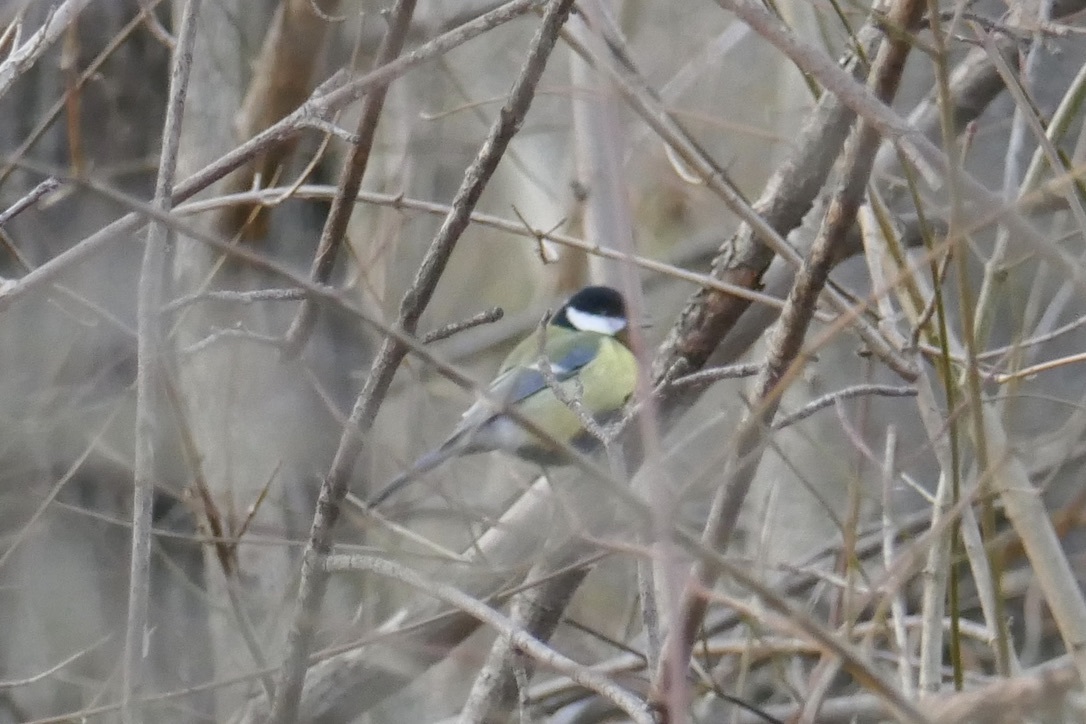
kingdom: Animalia
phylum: Chordata
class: Aves
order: Passeriformes
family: Paridae
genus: Parus
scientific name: Parus major
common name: Great tit
